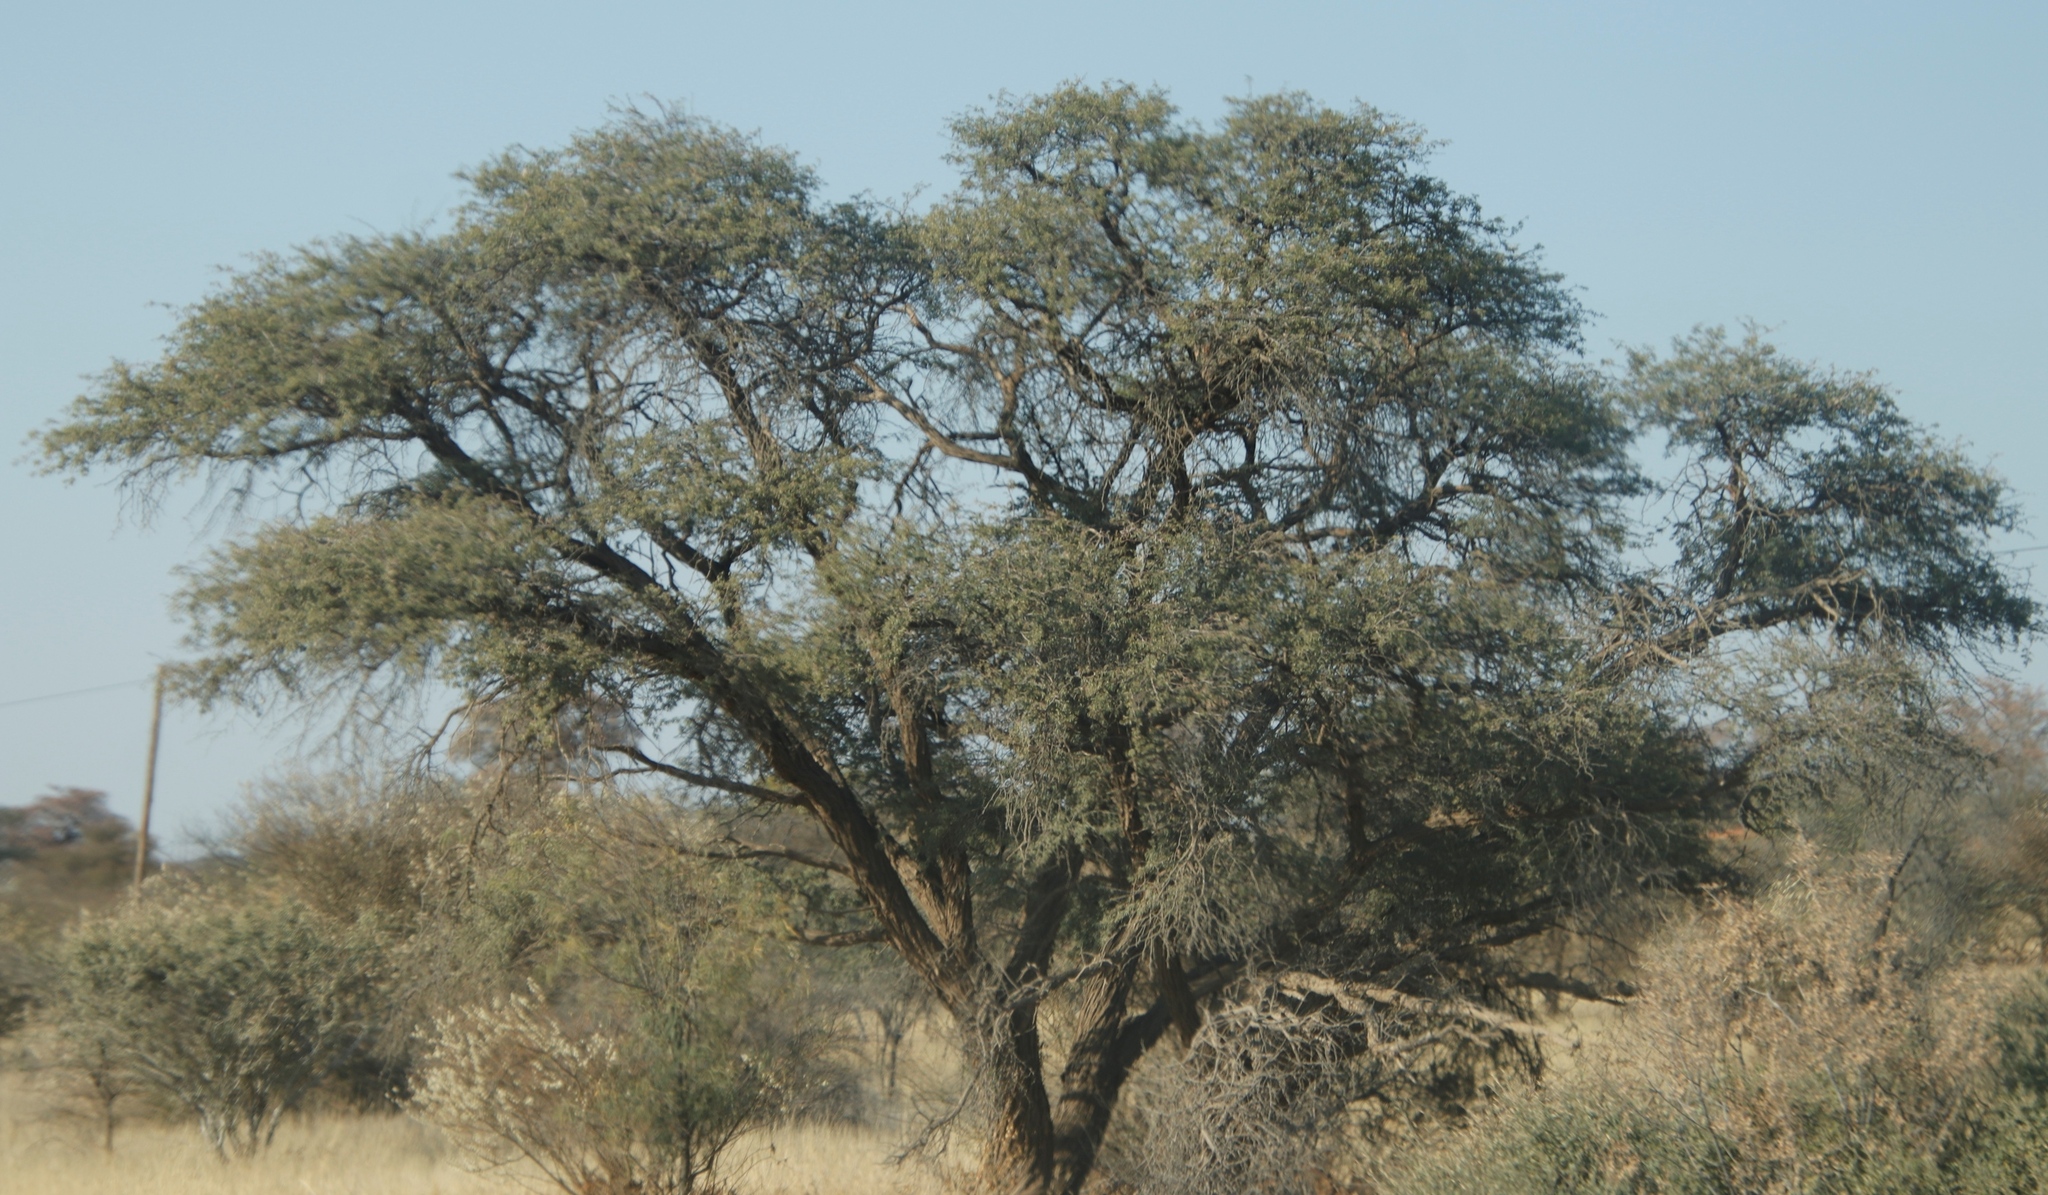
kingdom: Plantae
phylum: Tracheophyta
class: Magnoliopsida
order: Fabales
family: Fabaceae
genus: Vachellia
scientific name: Vachellia erioloba
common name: Camel thorn
